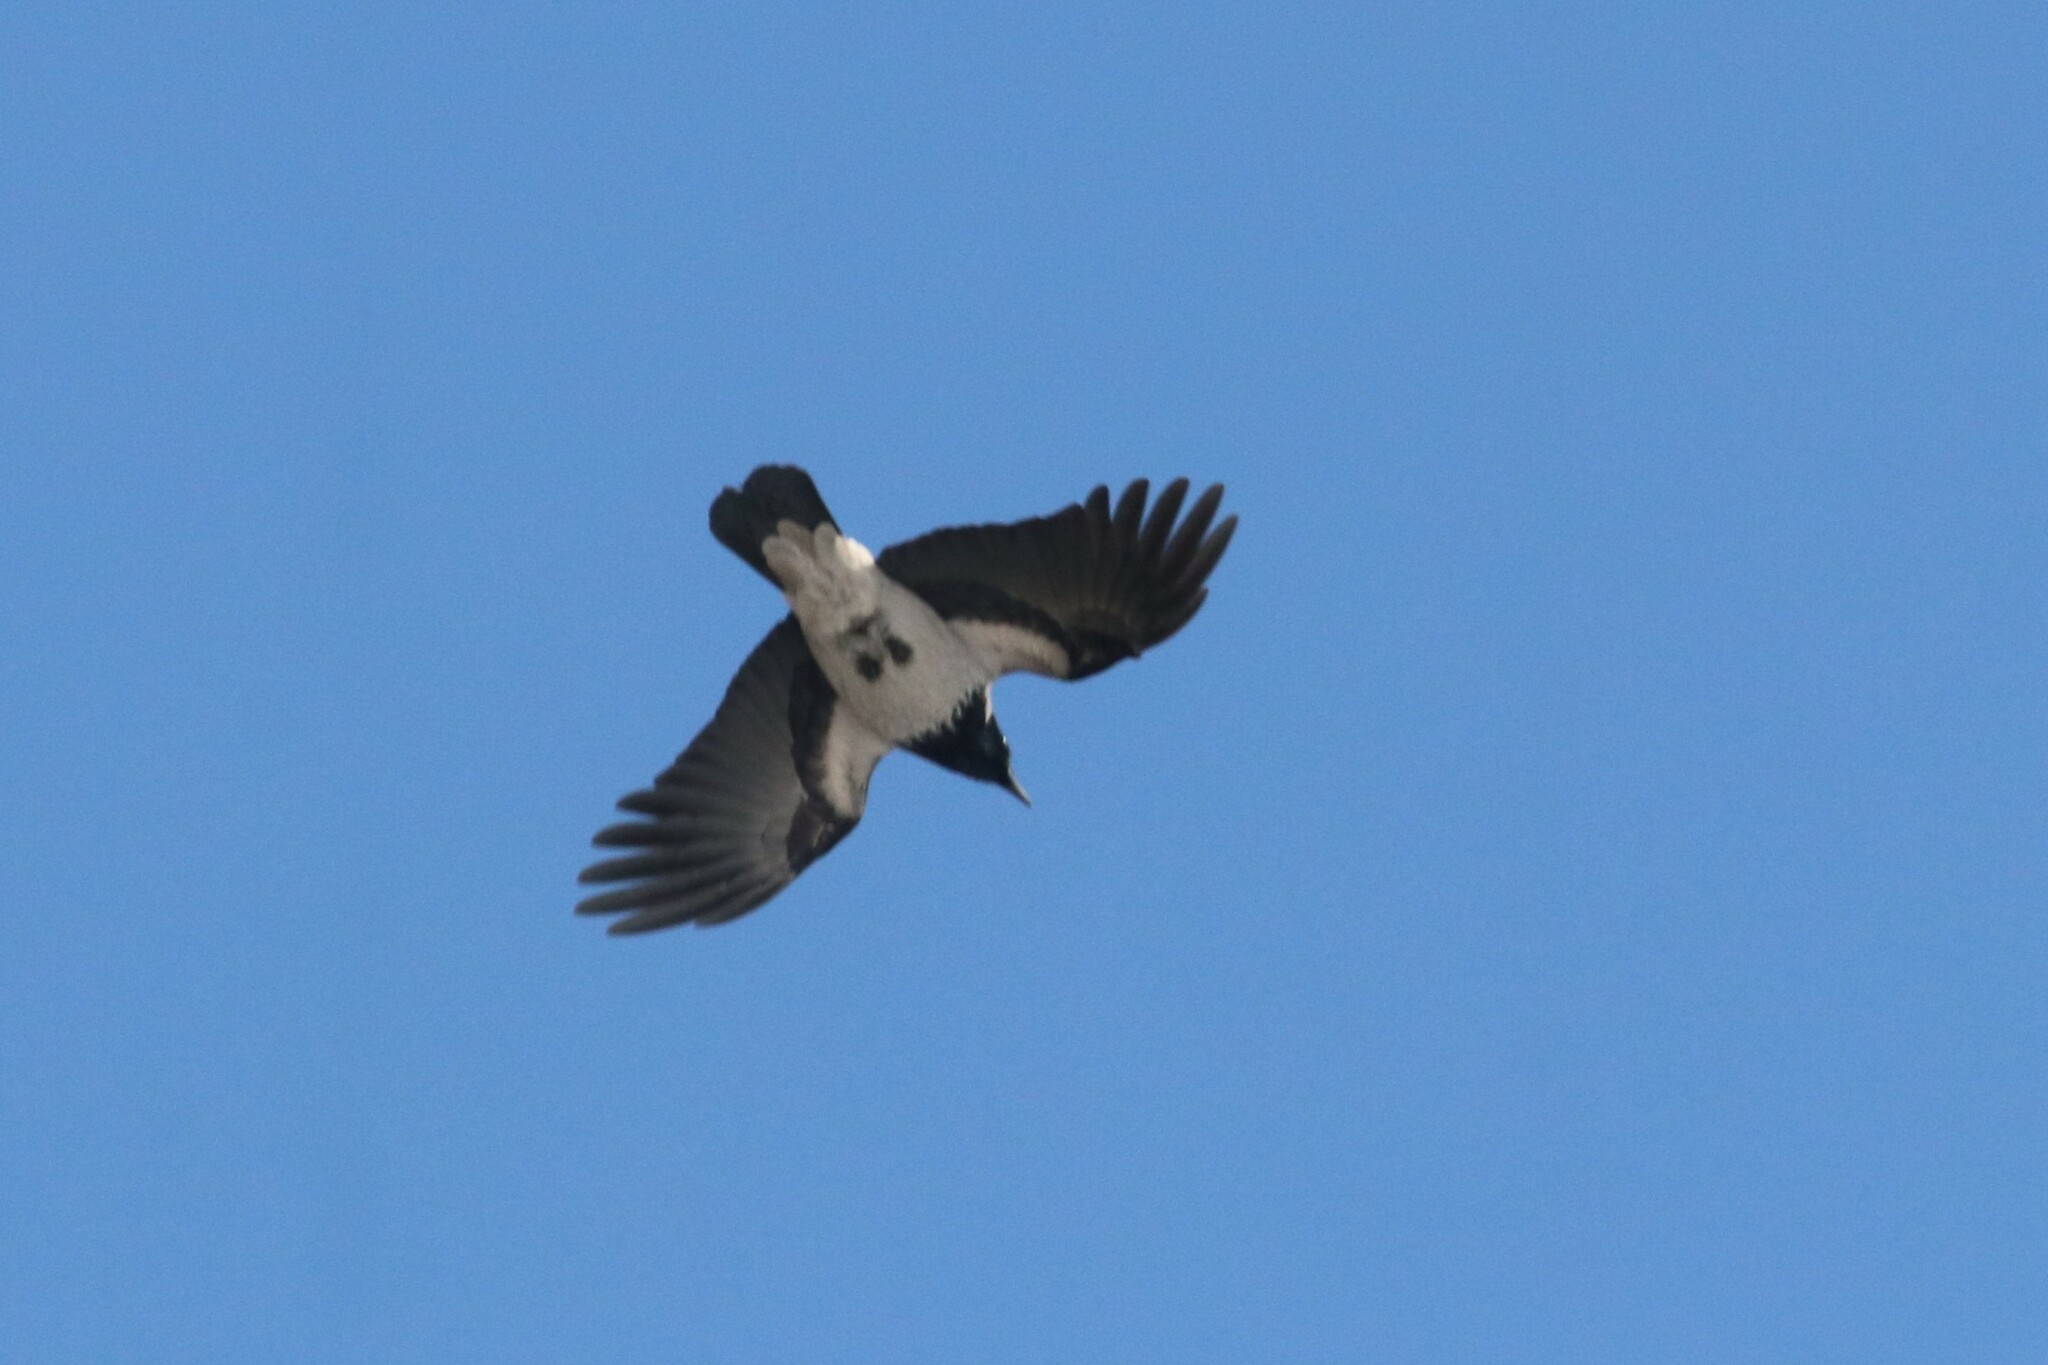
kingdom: Animalia
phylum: Chordata
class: Aves
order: Passeriformes
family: Corvidae
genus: Corvus
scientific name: Corvus cornix
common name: Hooded crow
